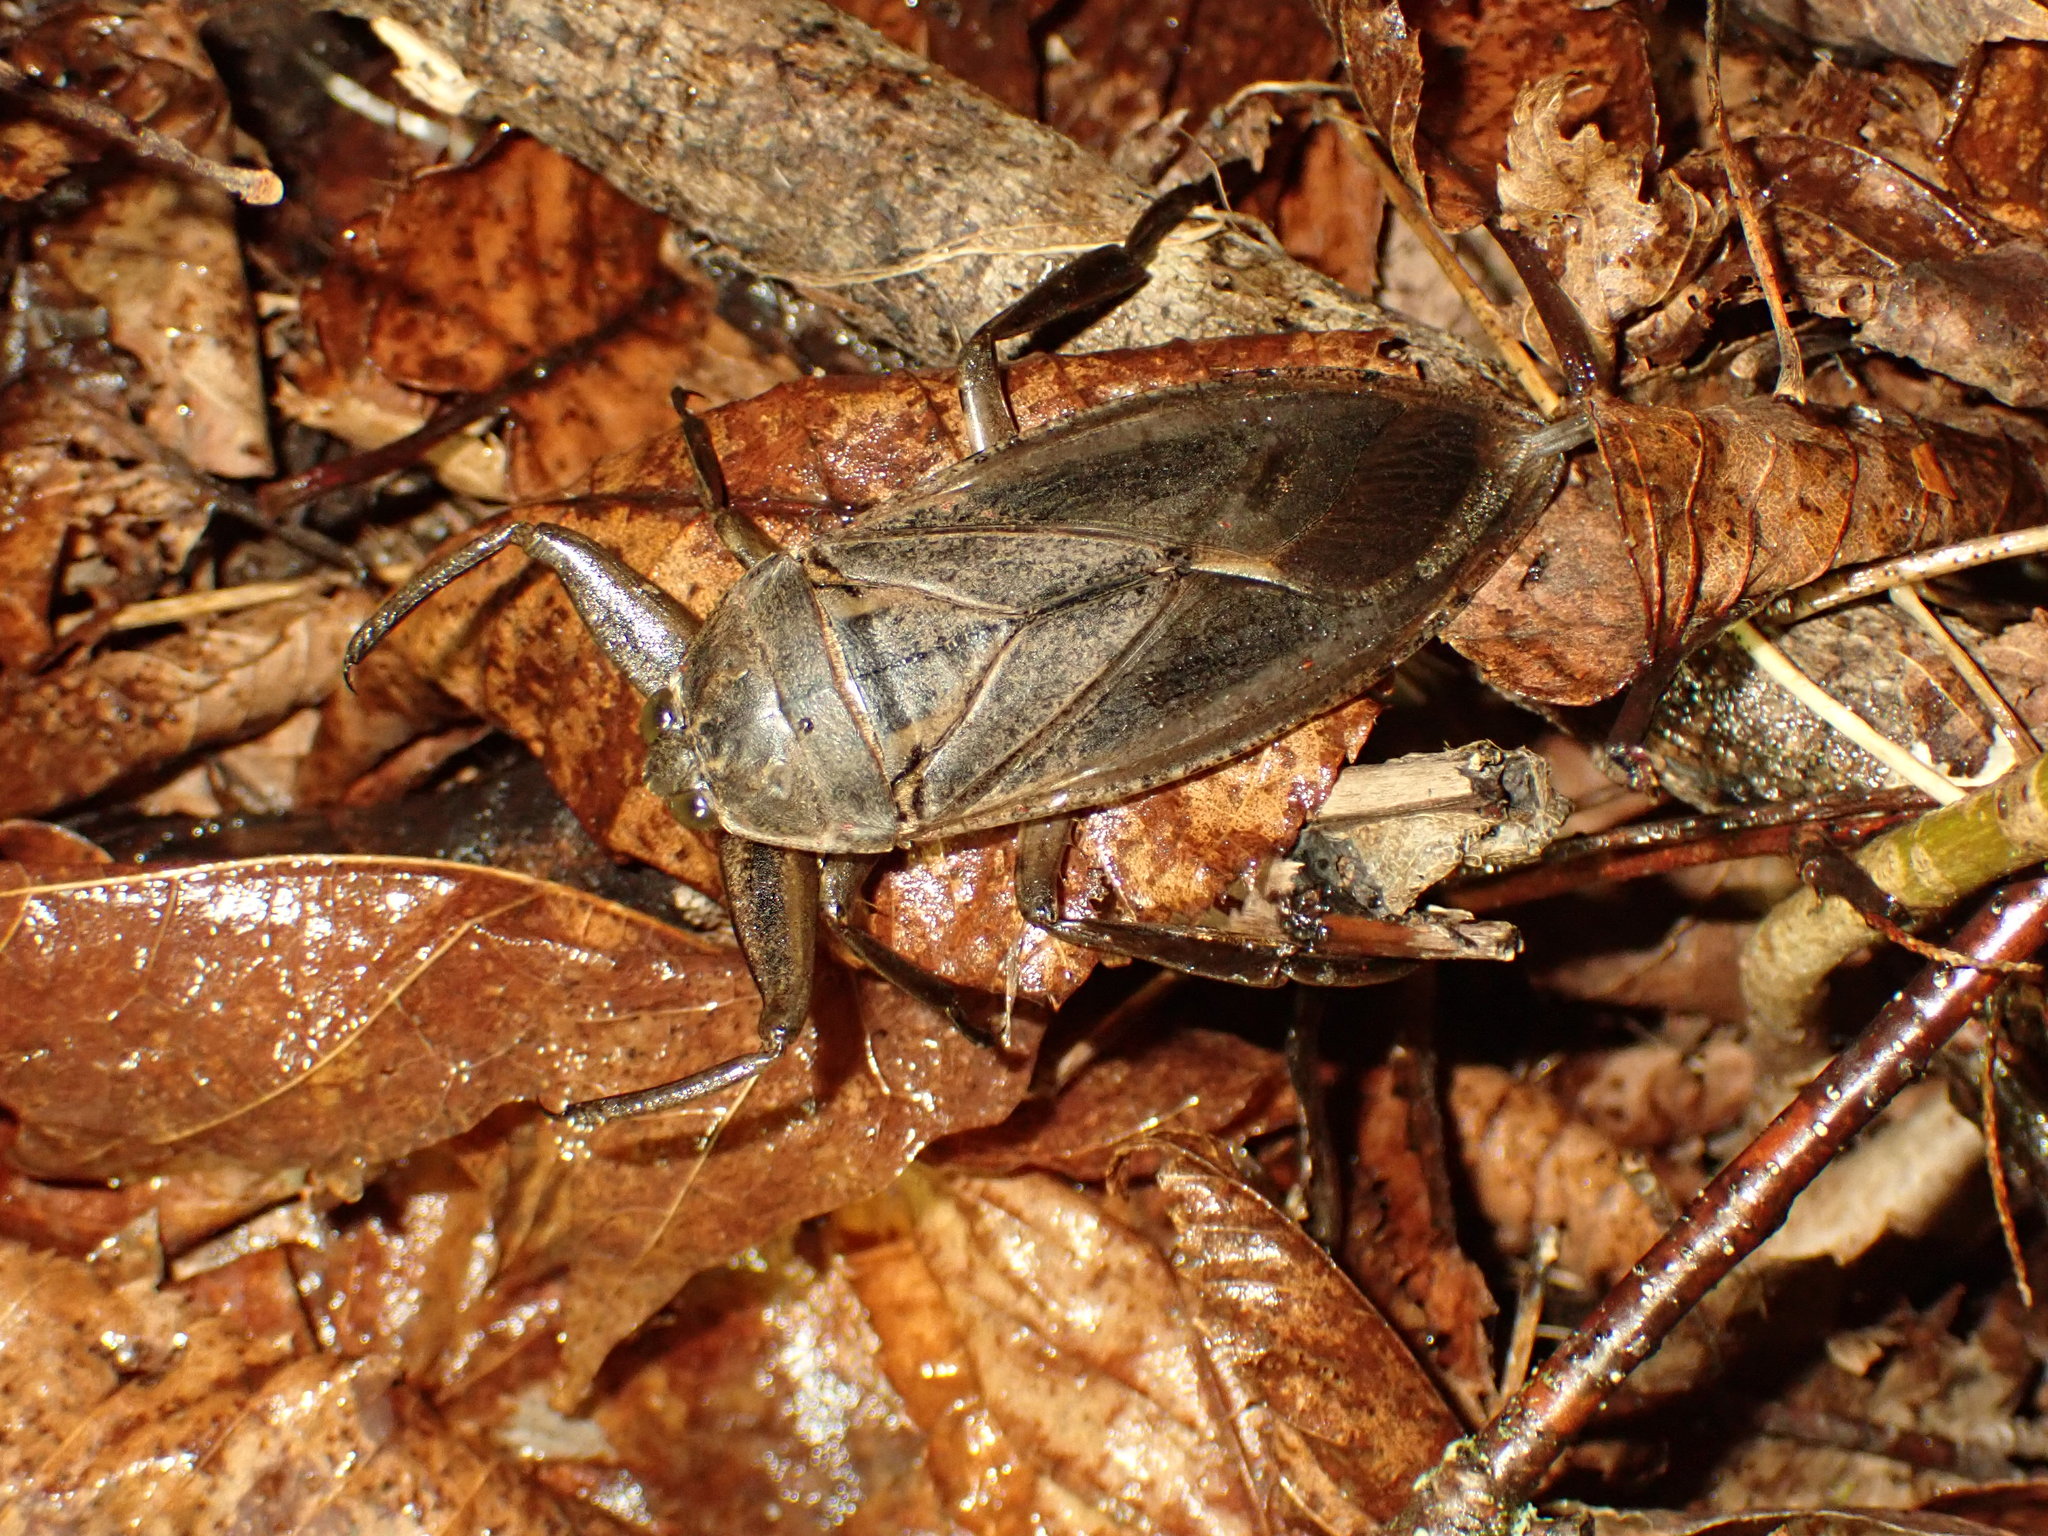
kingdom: Animalia
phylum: Arthropoda
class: Insecta
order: Hemiptera
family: Belostomatidae
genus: Lethocerus
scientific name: Lethocerus americanus
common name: Giant water bug
